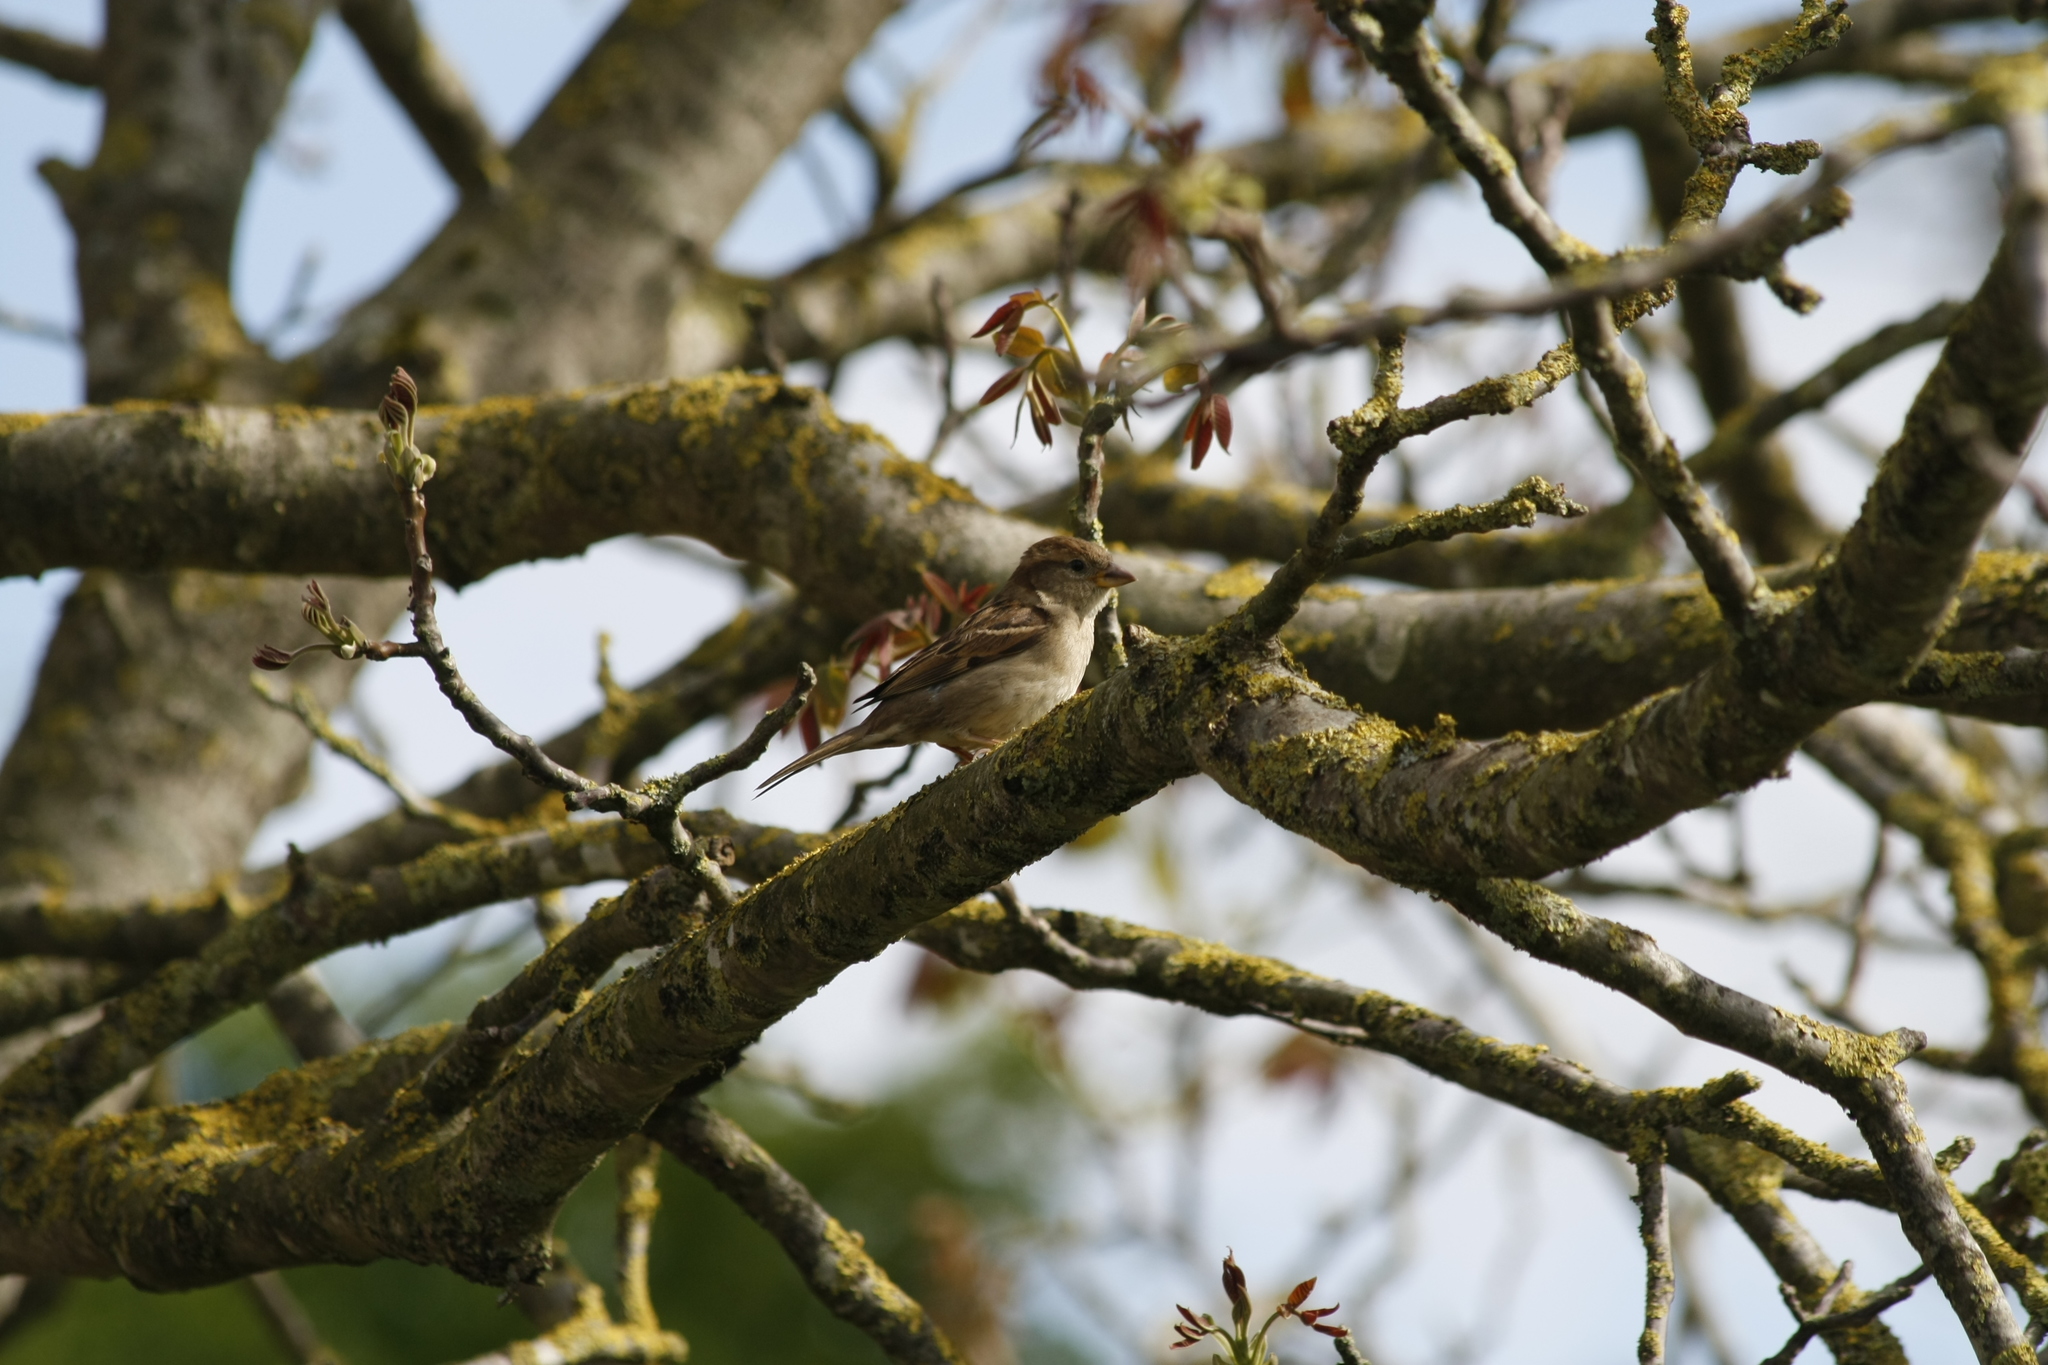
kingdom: Animalia
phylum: Chordata
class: Aves
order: Passeriformes
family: Passeridae
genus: Passer
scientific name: Passer domesticus
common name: House sparrow
